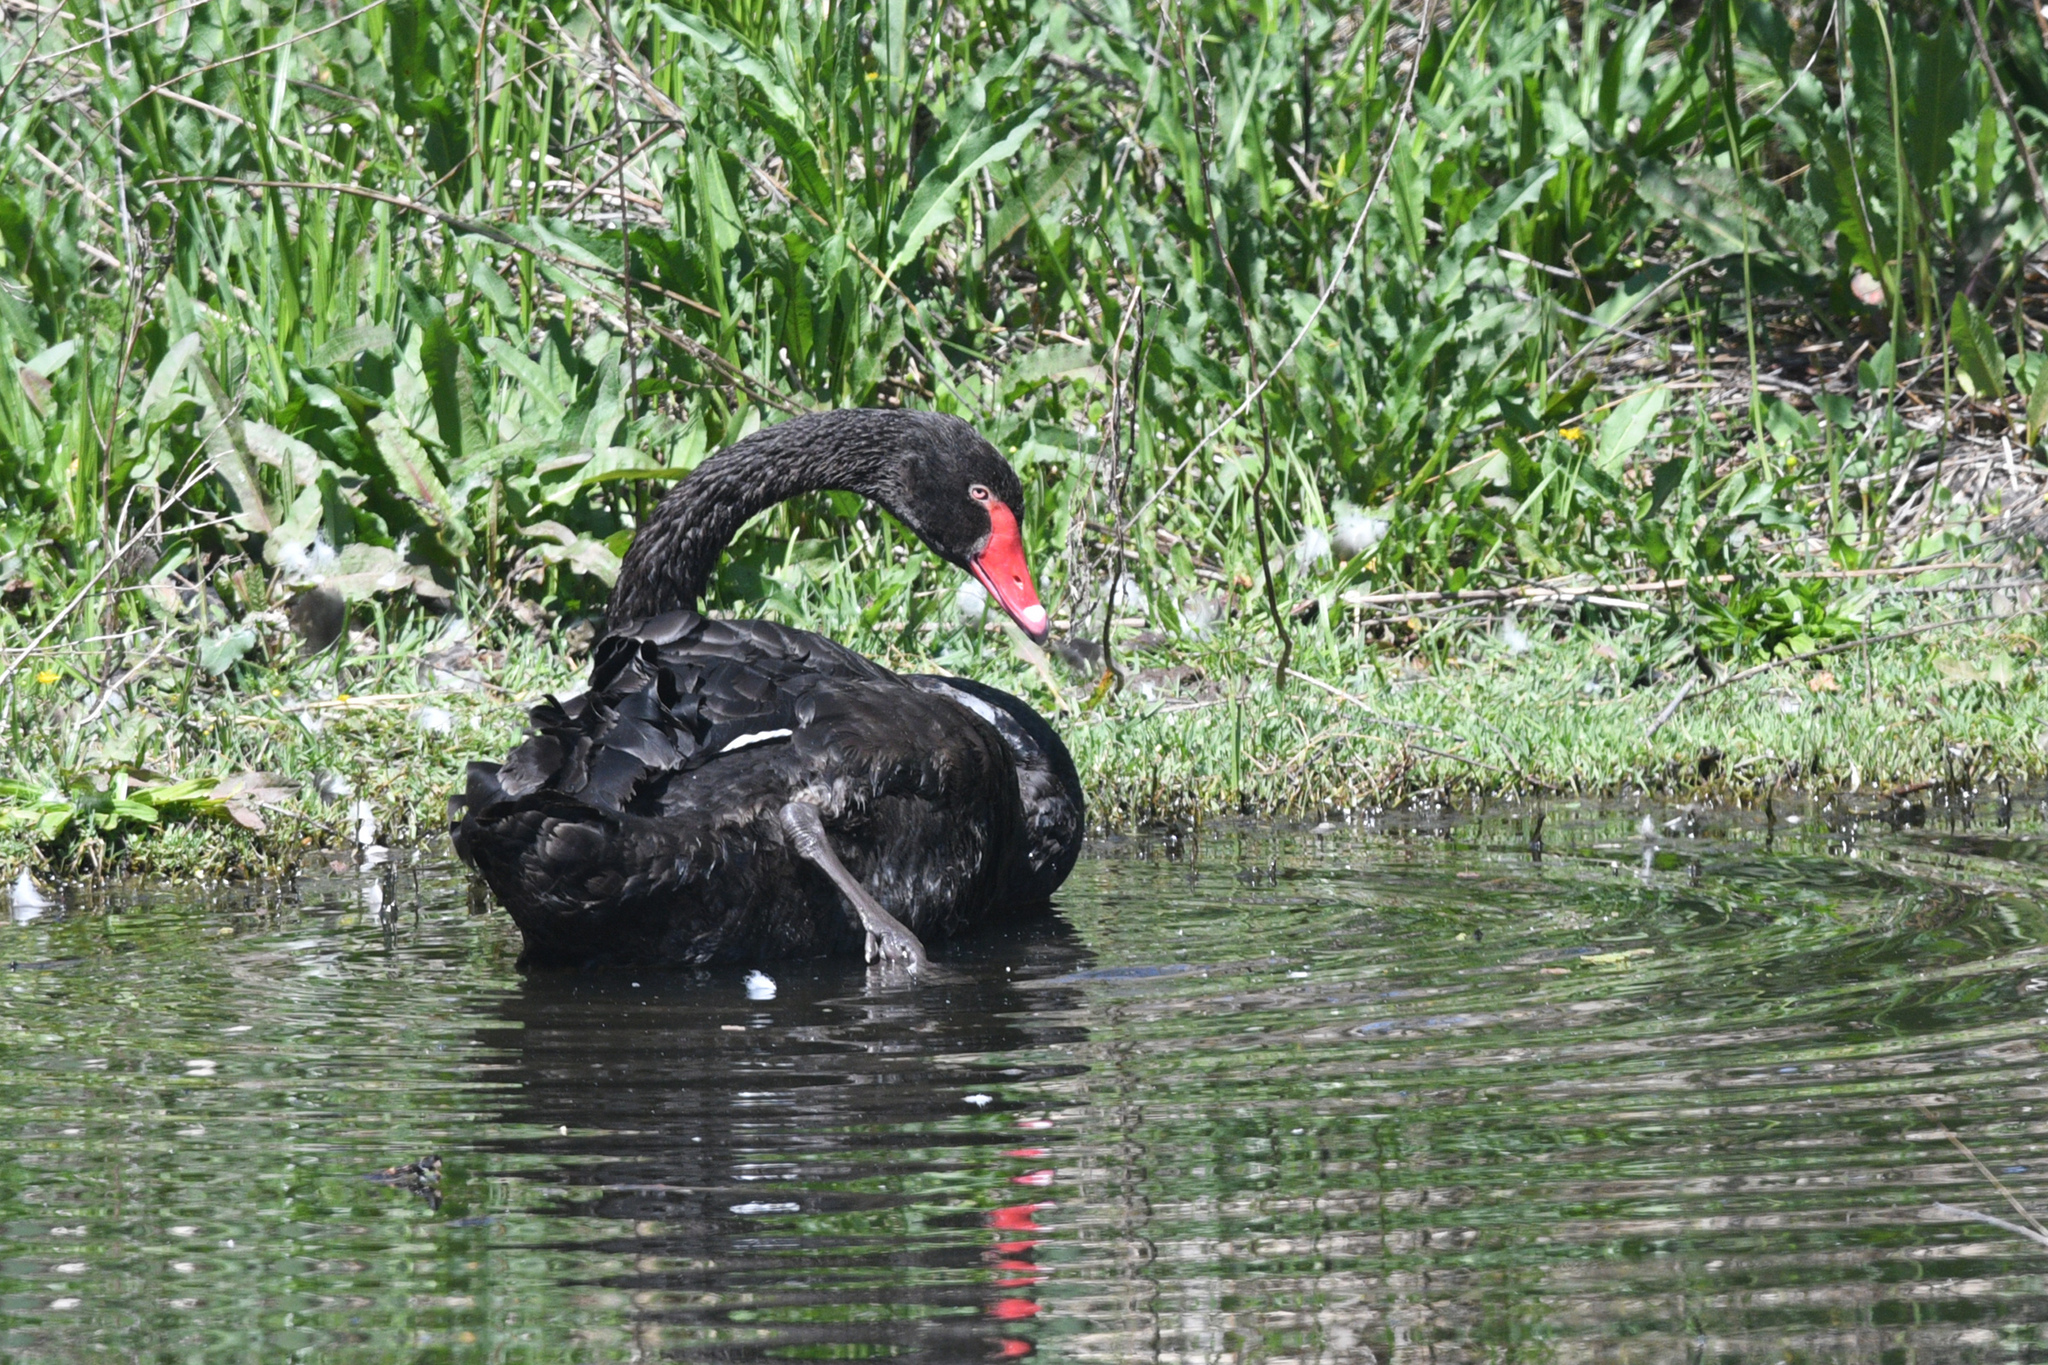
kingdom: Animalia
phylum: Chordata
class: Aves
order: Anseriformes
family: Anatidae
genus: Cygnus
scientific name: Cygnus atratus
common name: Black swan
